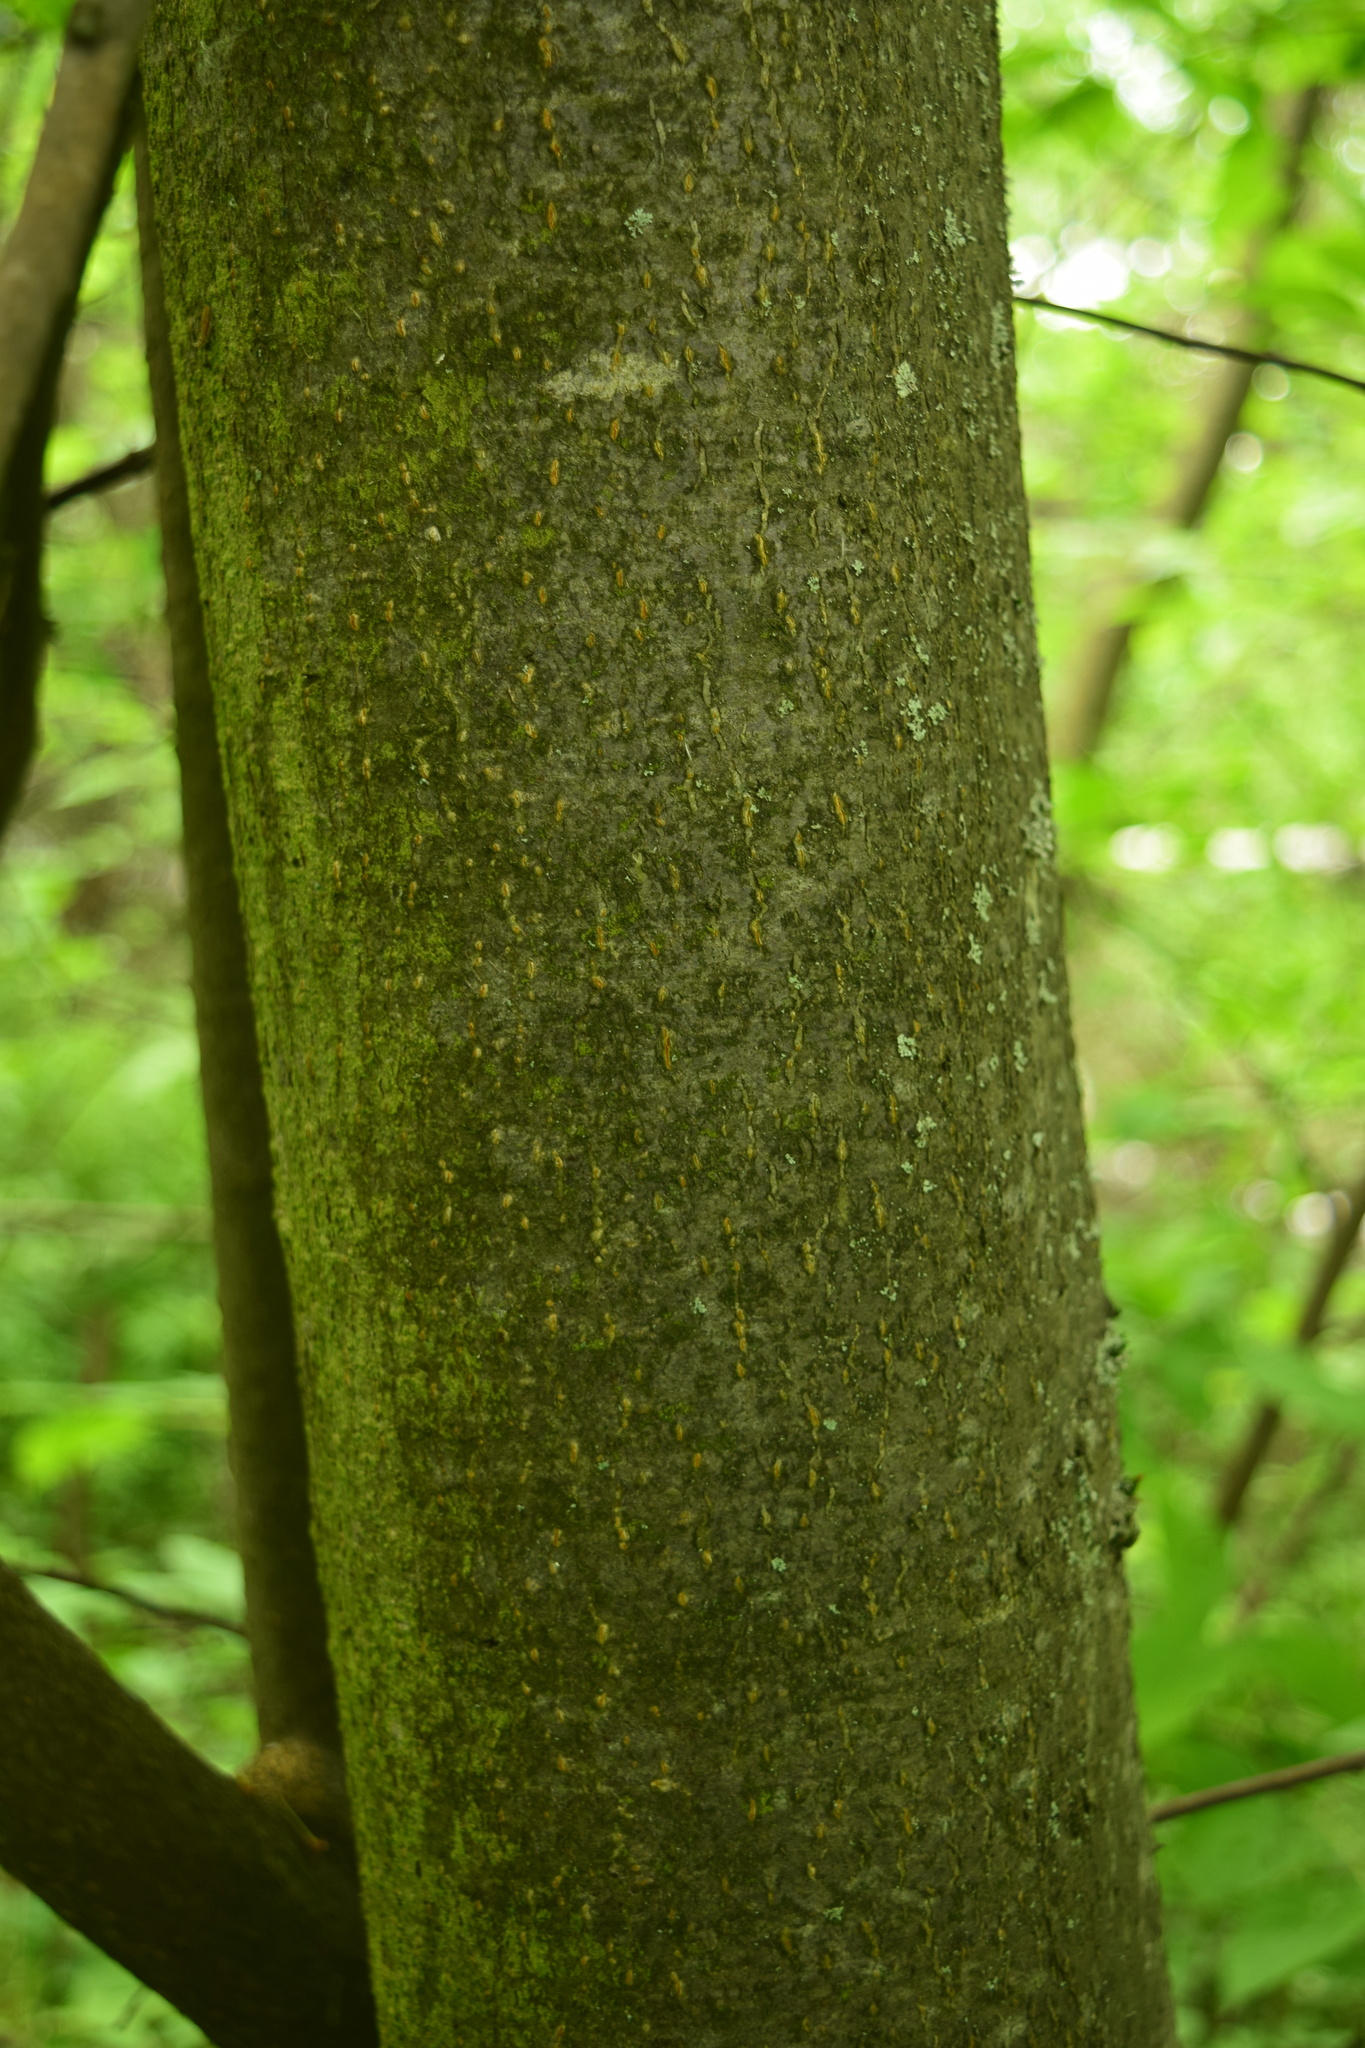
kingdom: Plantae
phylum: Tracheophyta
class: Magnoliopsida
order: Rosales
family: Rosaceae
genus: Prunus
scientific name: Prunus padus
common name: Bird cherry
